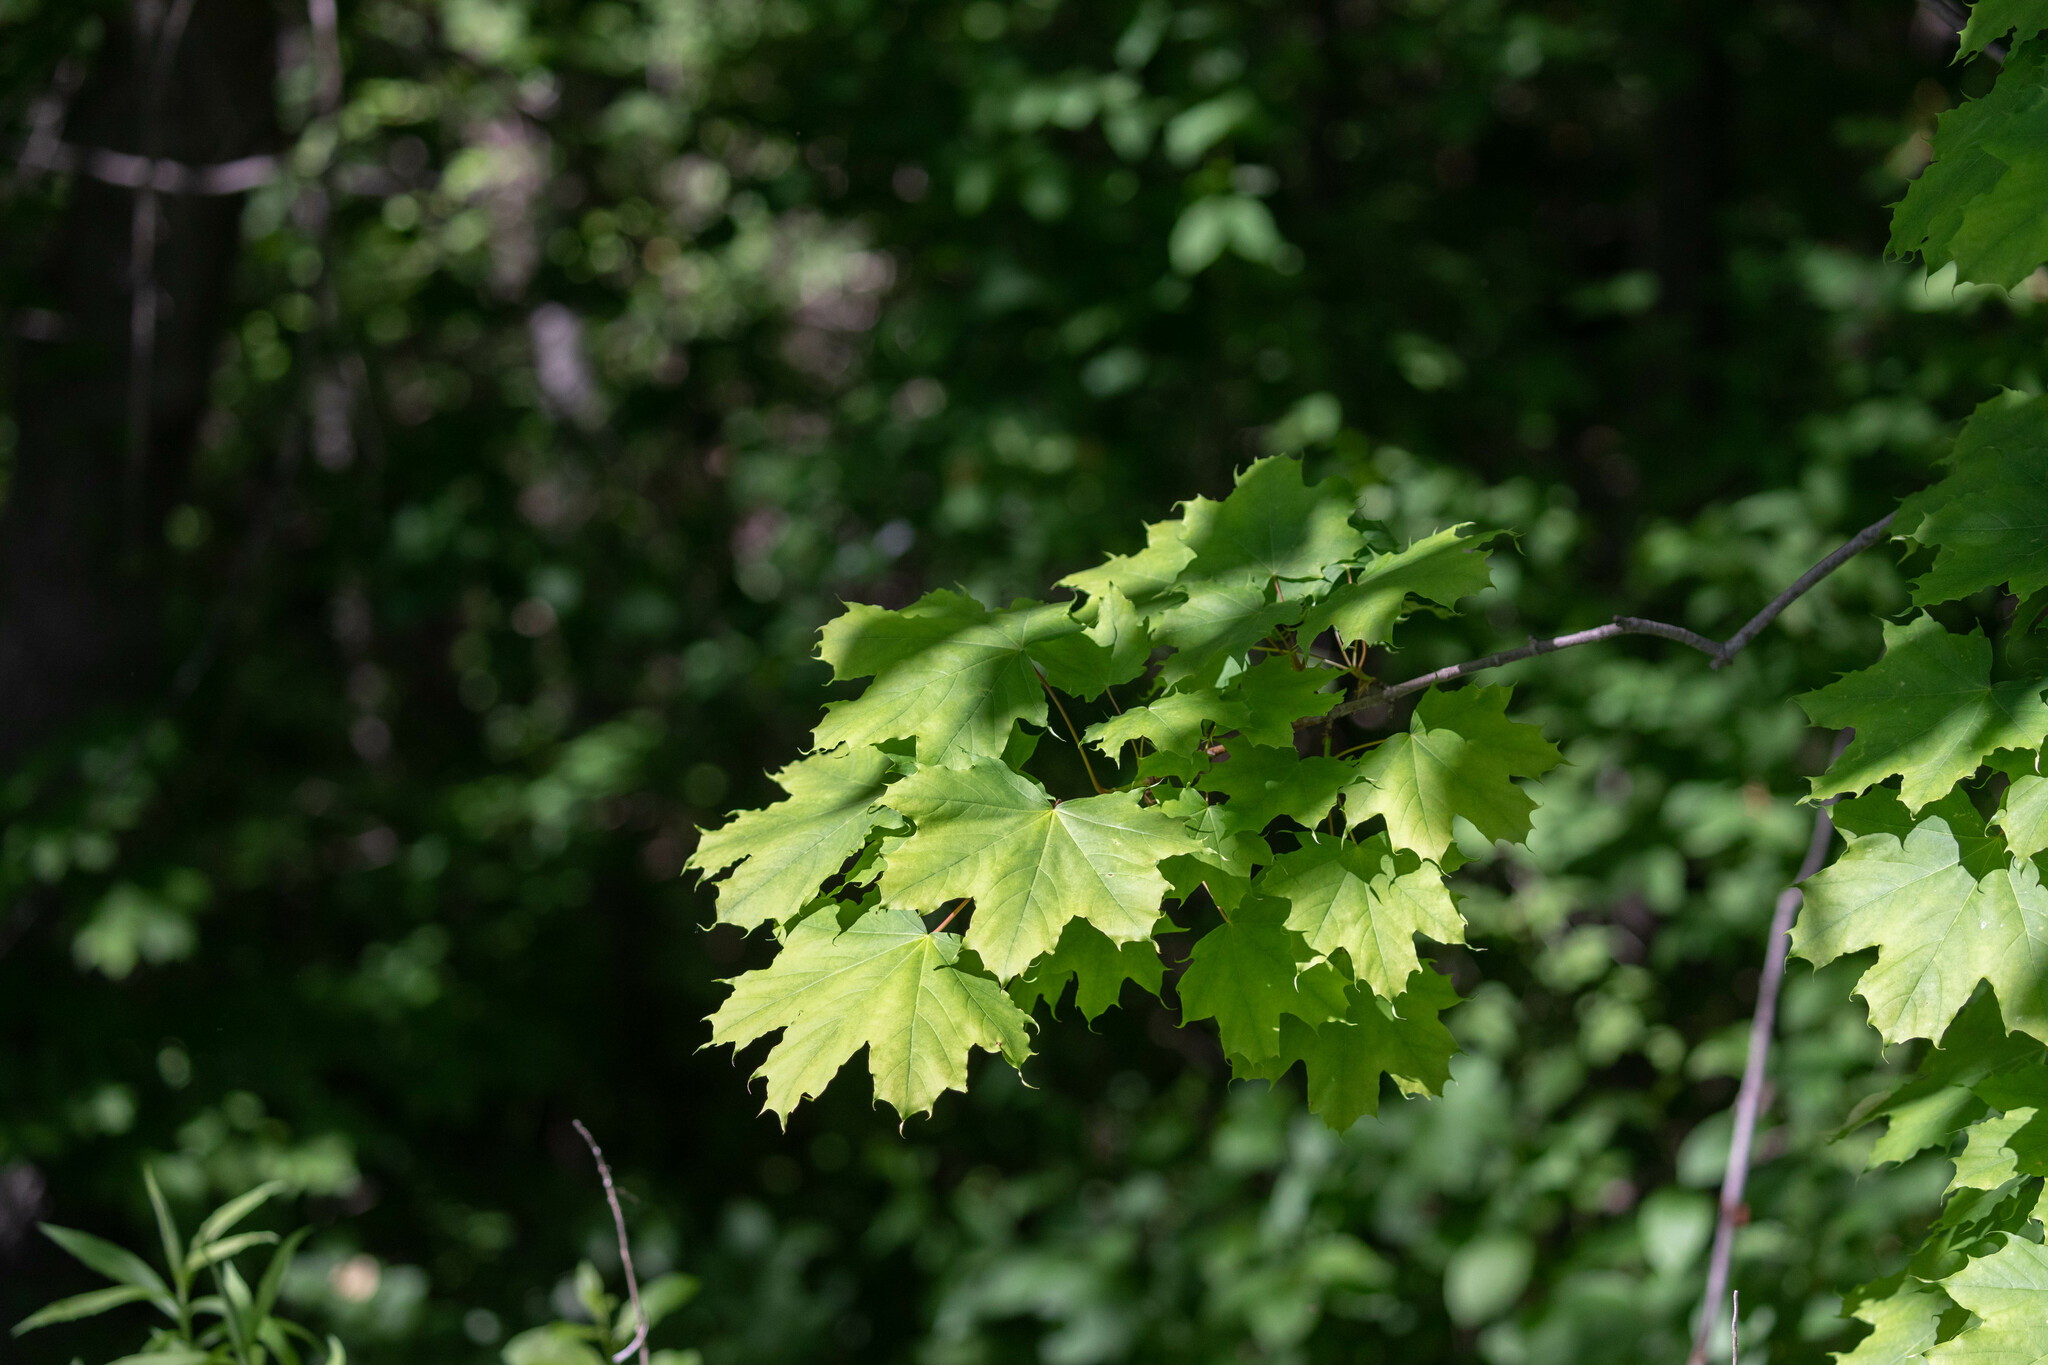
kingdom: Plantae
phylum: Tracheophyta
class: Magnoliopsida
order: Sapindales
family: Sapindaceae
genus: Acer
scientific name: Acer platanoides
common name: Norway maple
